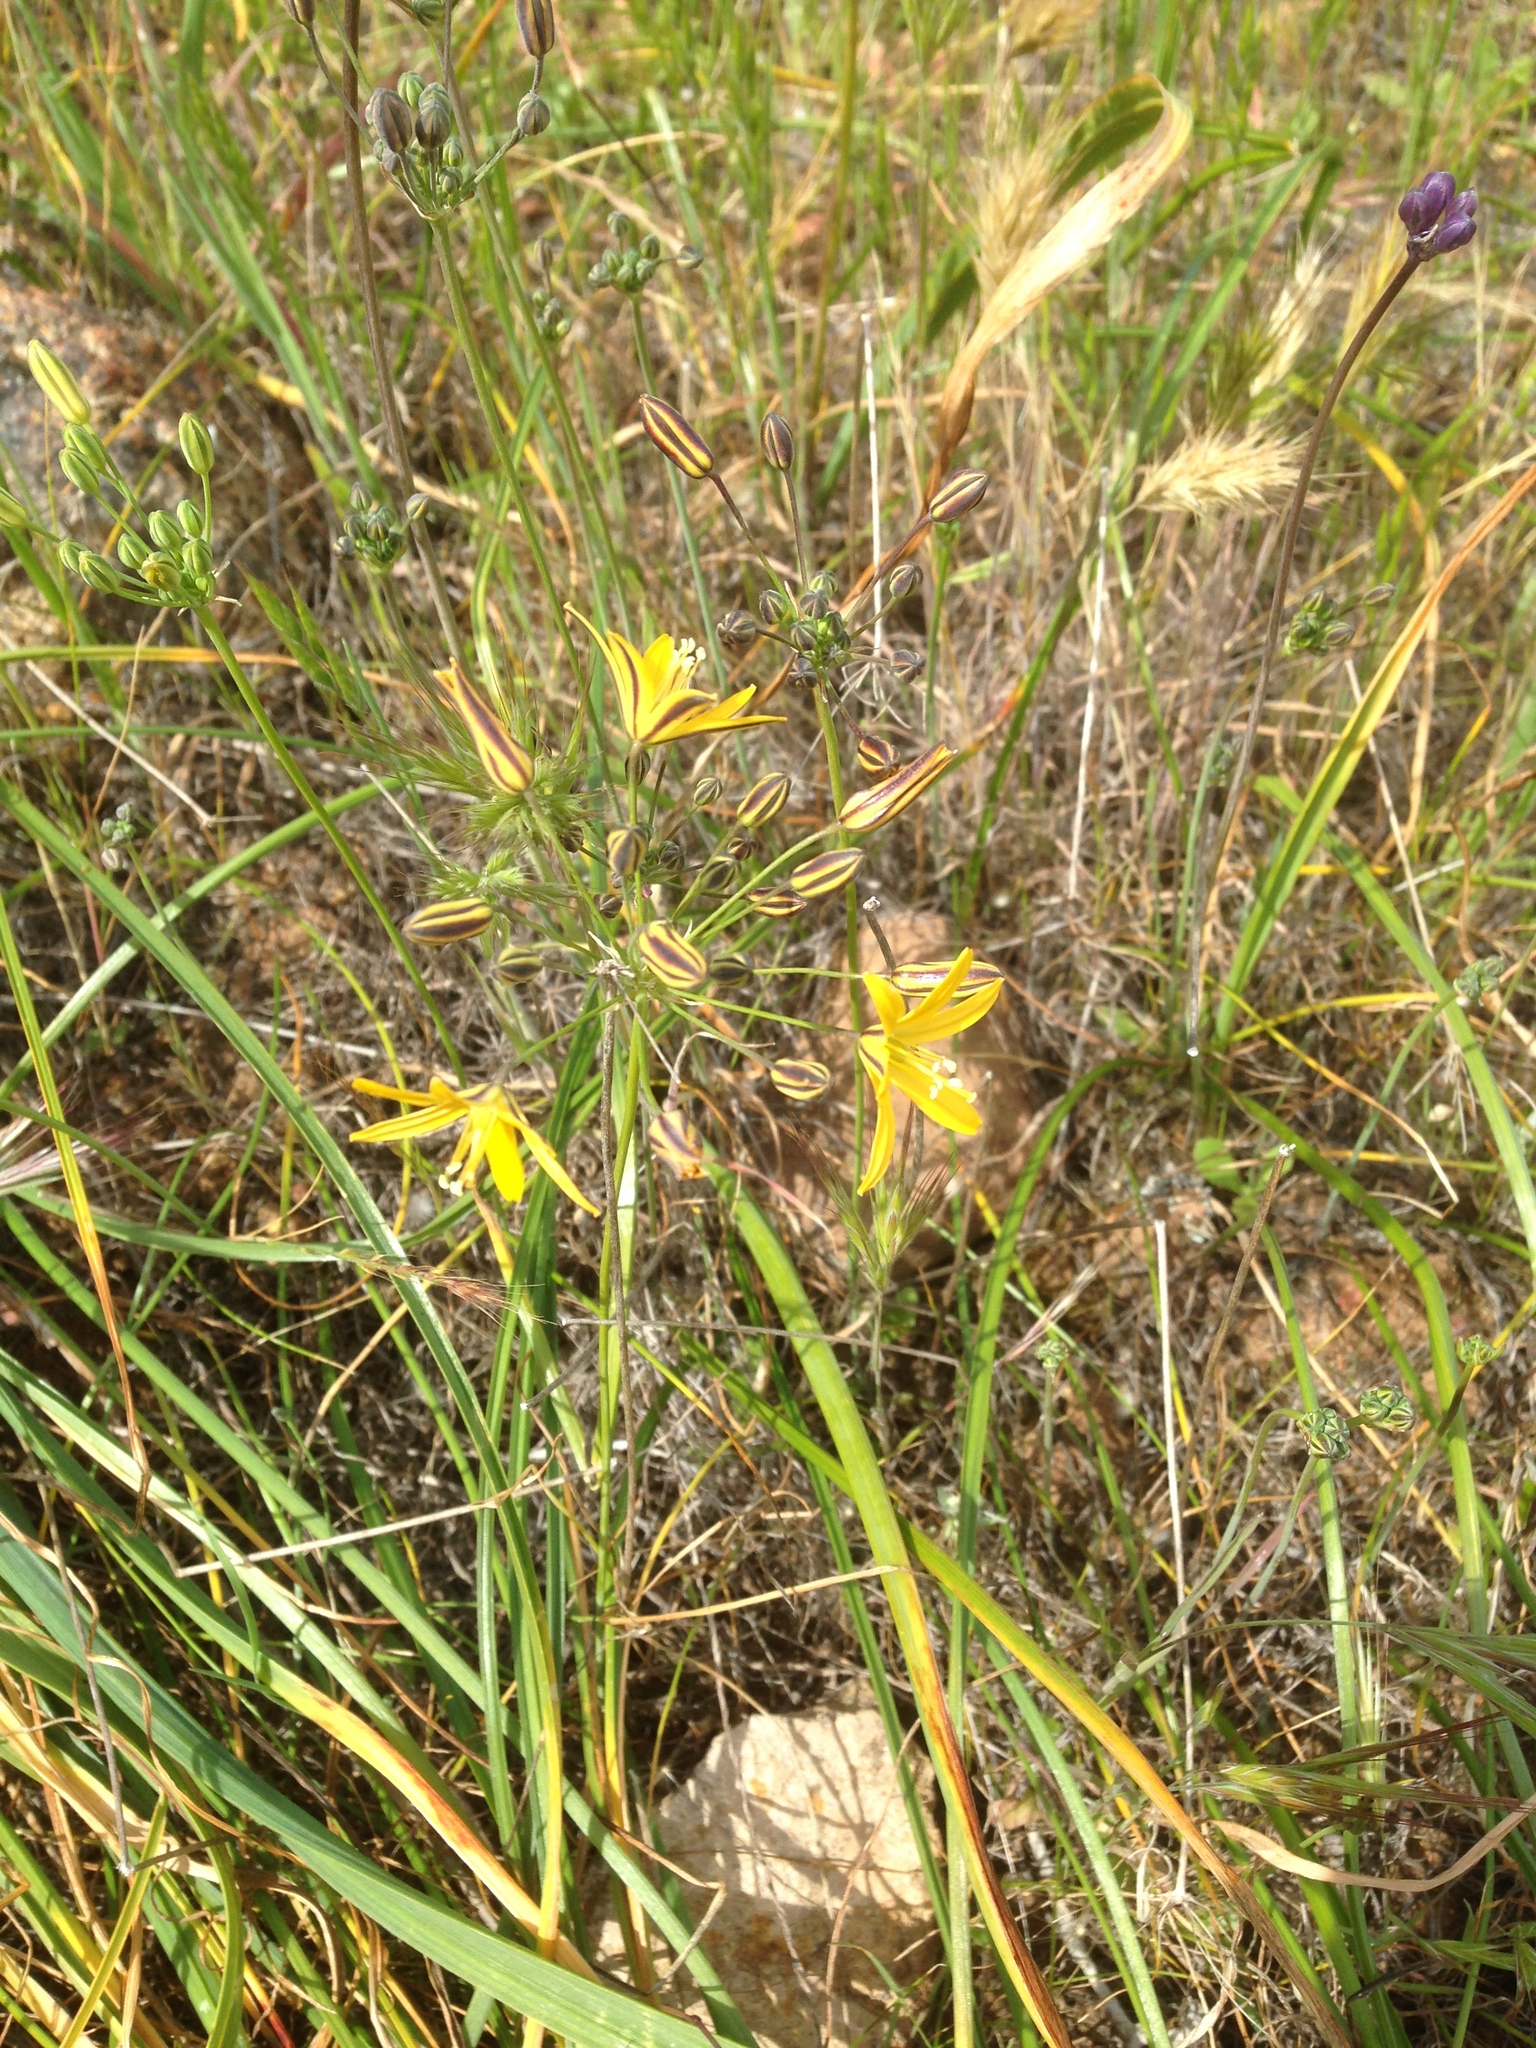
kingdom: Plantae
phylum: Tracheophyta
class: Liliopsida
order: Asparagales
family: Asparagaceae
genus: Bloomeria
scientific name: Bloomeria crocea
